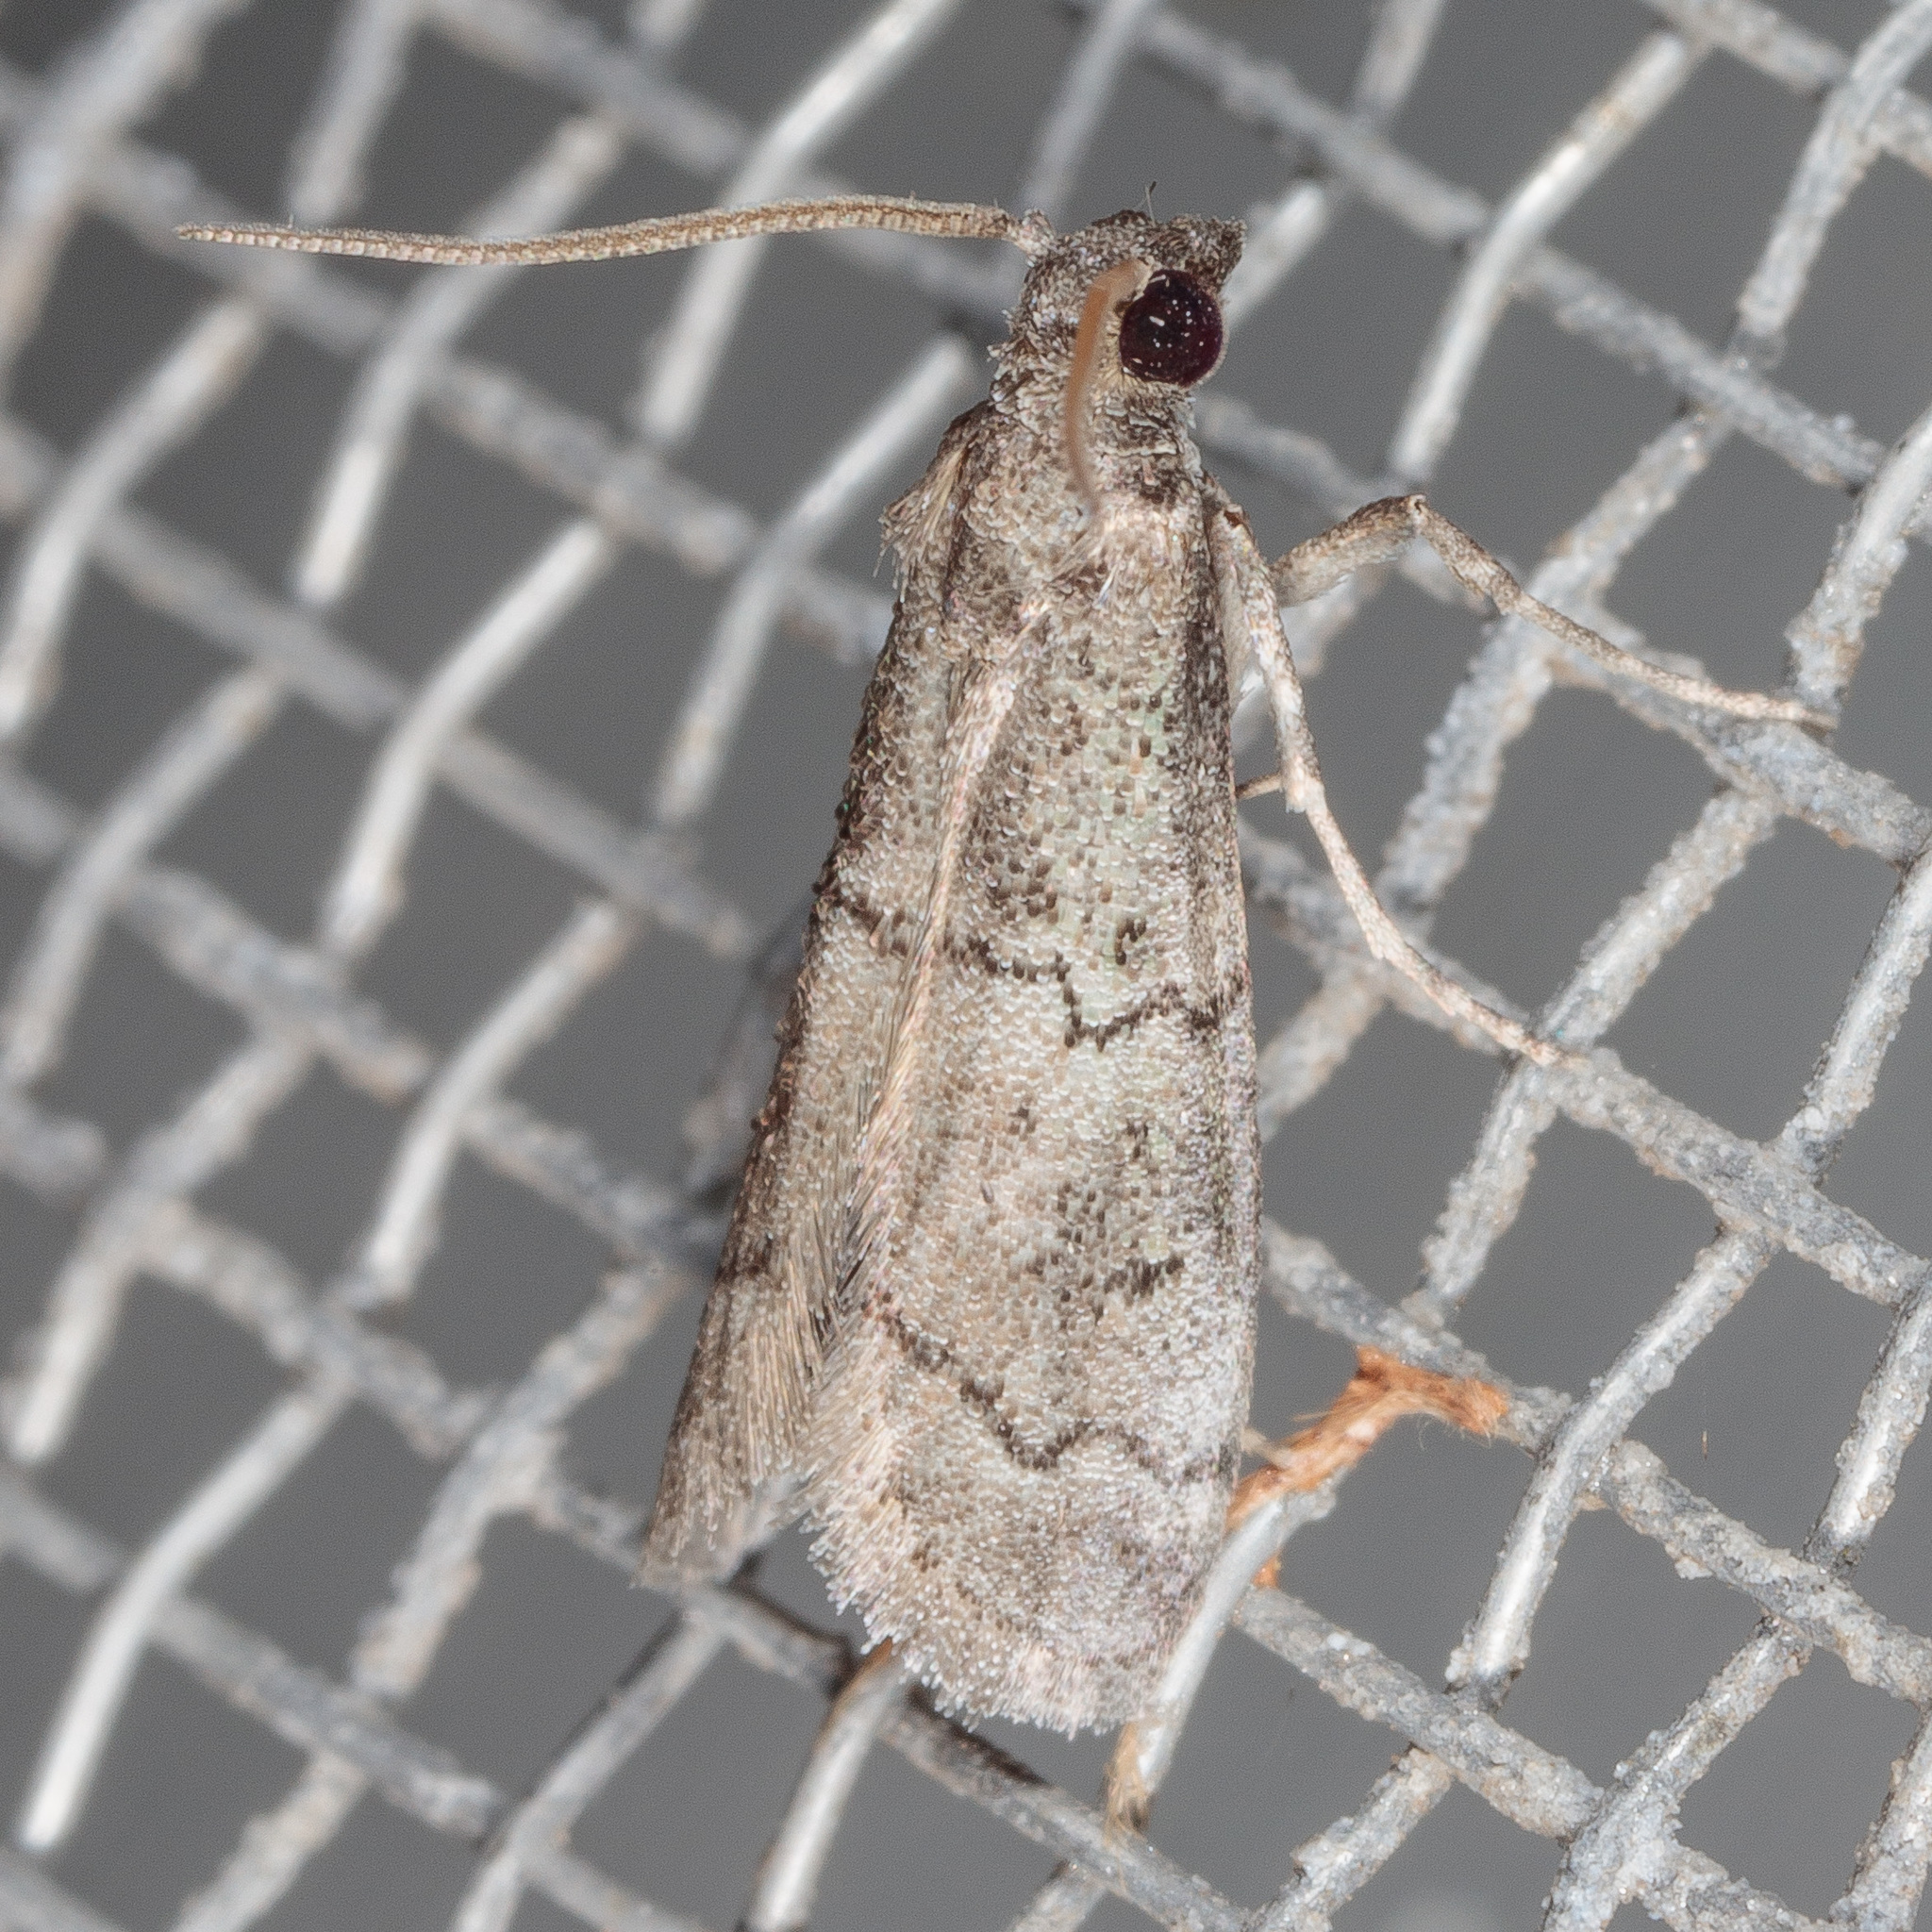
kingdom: Animalia
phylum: Arthropoda
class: Insecta
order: Lepidoptera
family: Pyralidae
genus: Cacotherapia
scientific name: Cacotherapia flexilinealis
